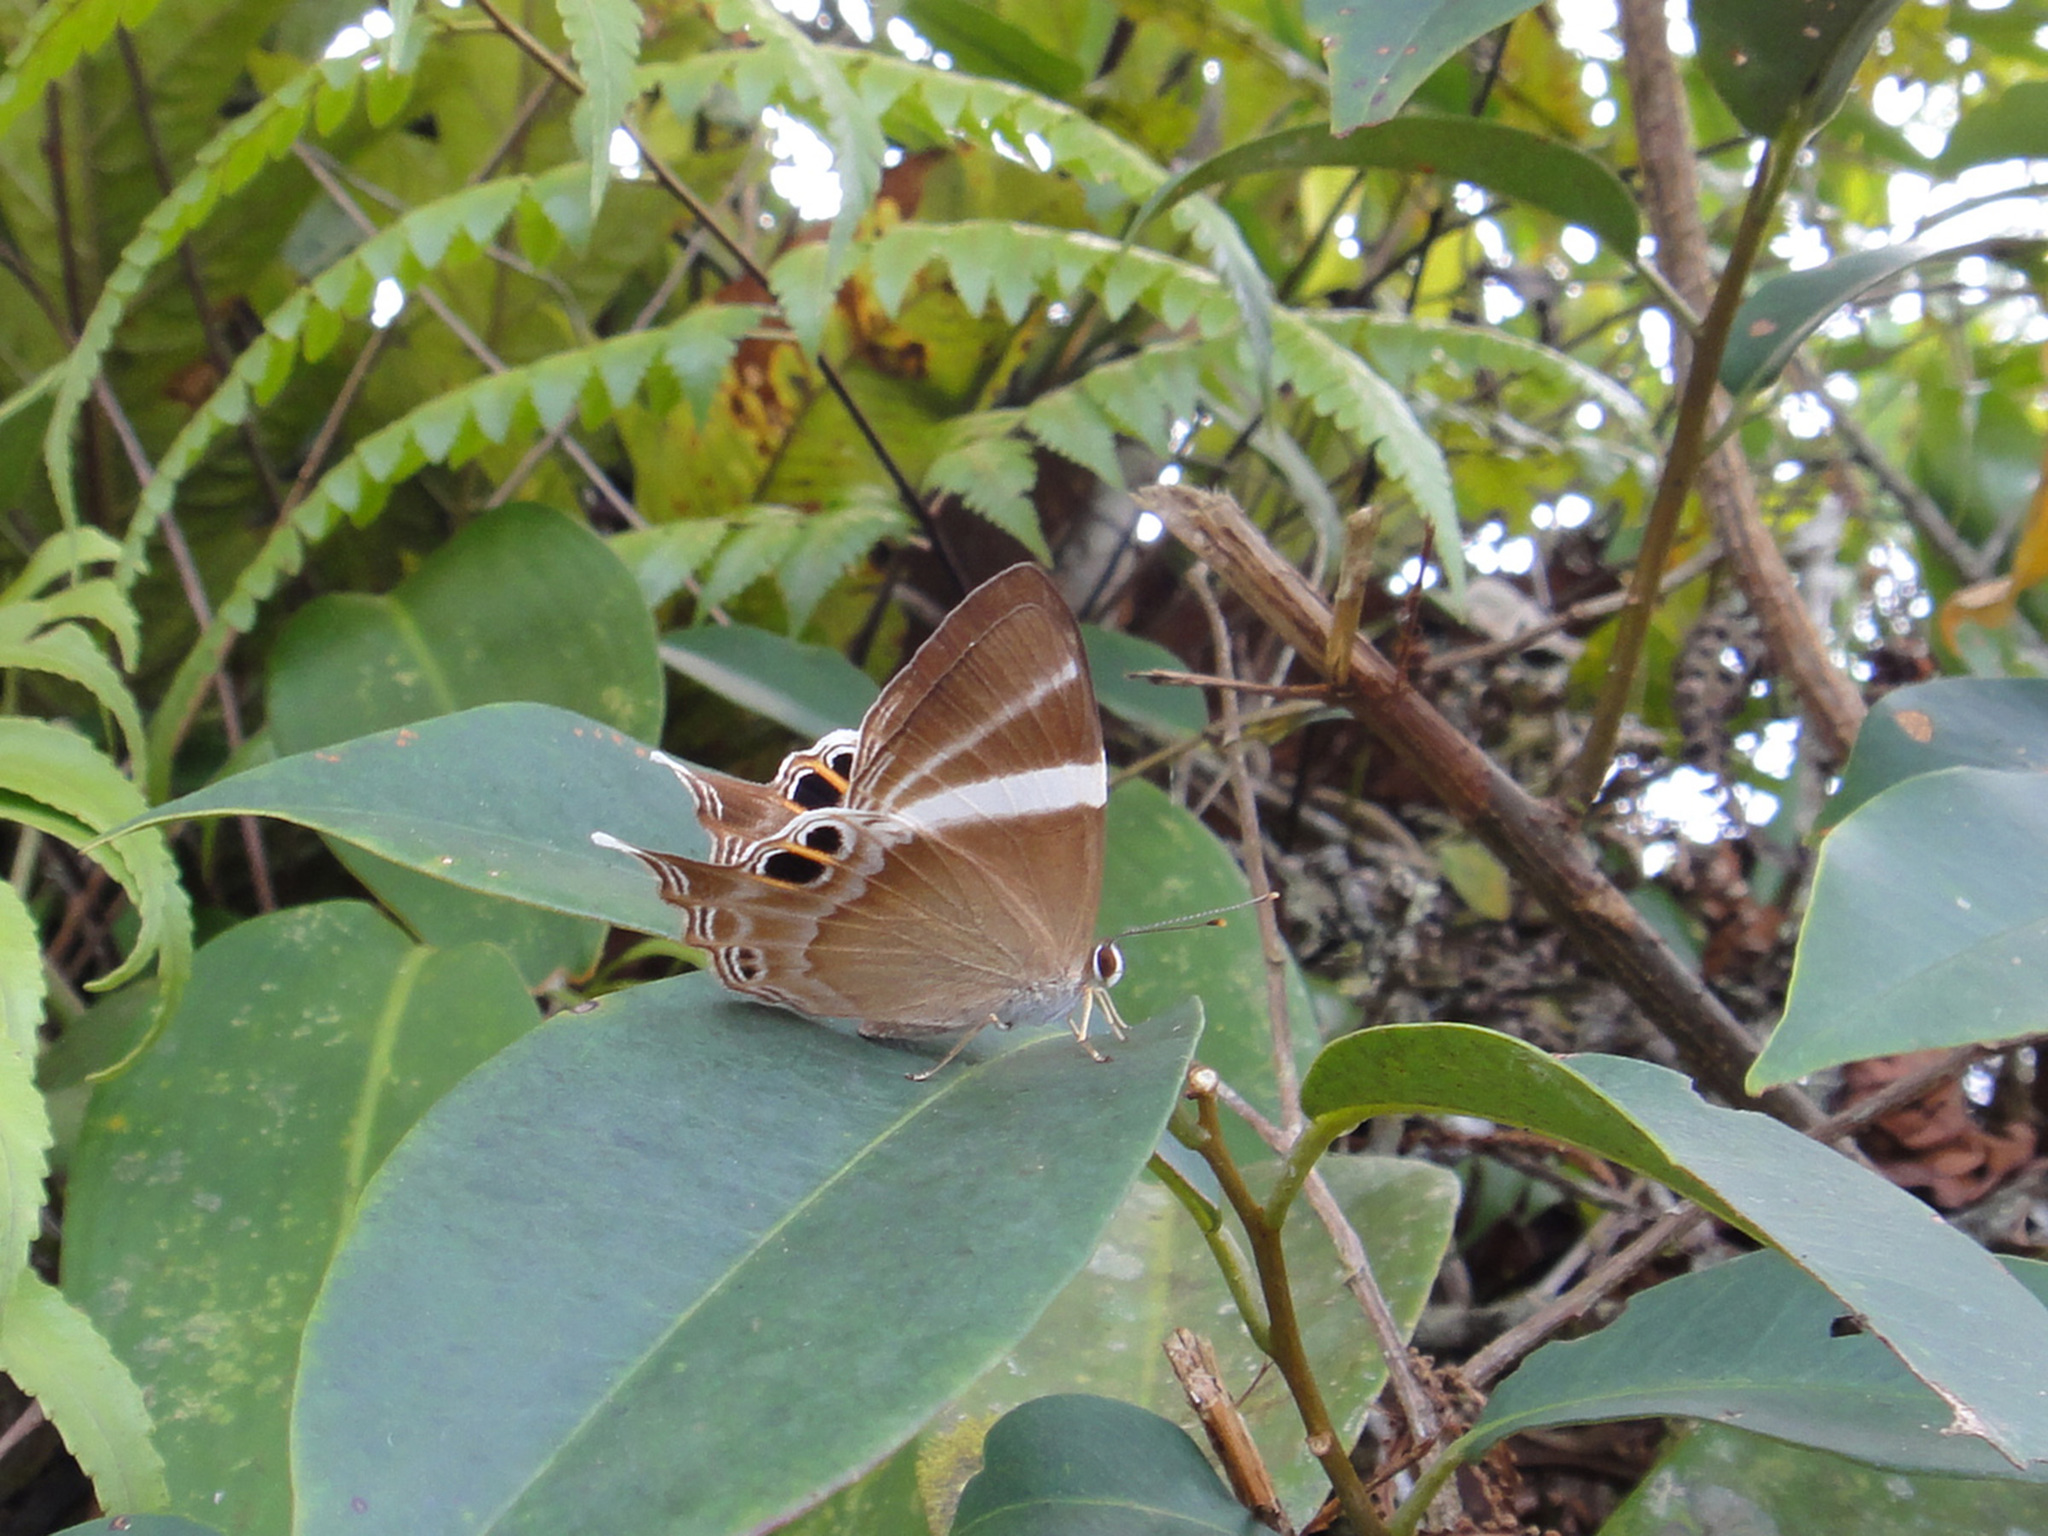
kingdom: Animalia
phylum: Arthropoda
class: Insecta
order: Lepidoptera
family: Lycaenidae
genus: Abisara
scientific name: Abisara neophron
